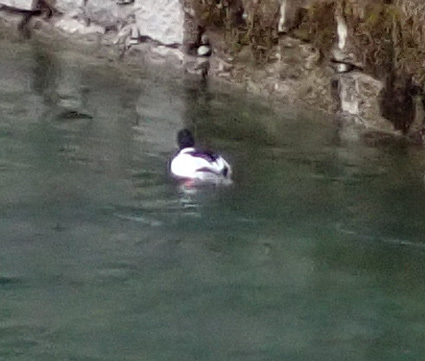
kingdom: Animalia
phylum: Chordata
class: Aves
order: Anseriformes
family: Anatidae
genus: Mergus
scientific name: Mergus merganser
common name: Common merganser
